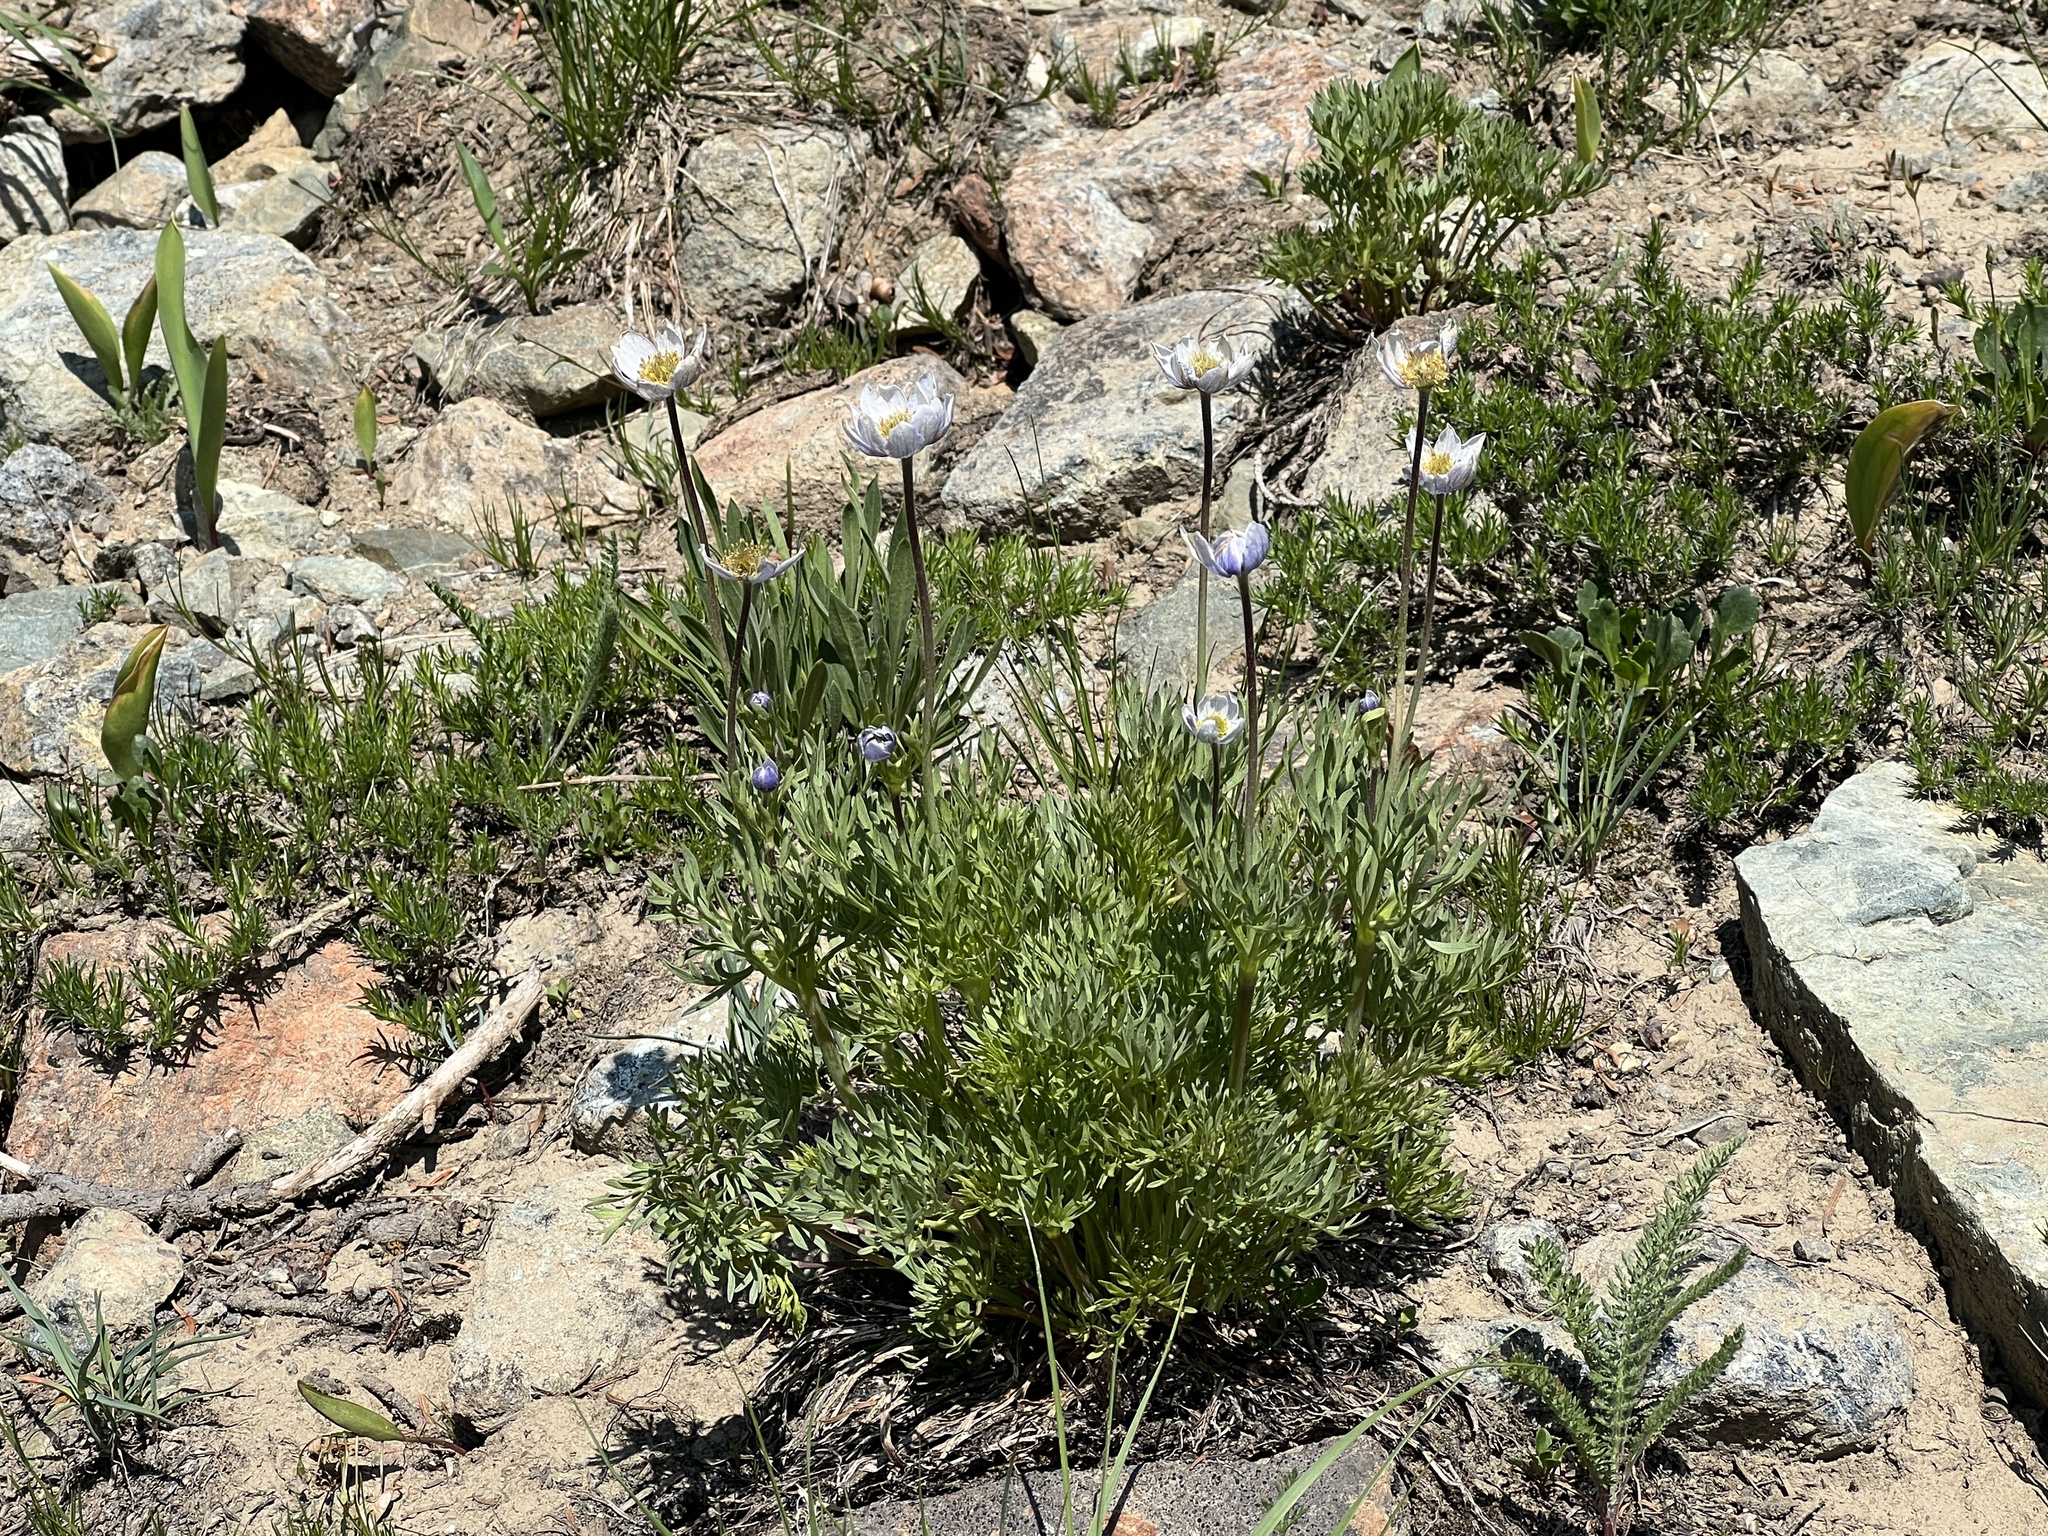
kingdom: Plantae
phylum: Tracheophyta
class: Magnoliopsida
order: Ranunculales
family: Ranunculaceae
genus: Anemone
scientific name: Anemone drummondii
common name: Drummond's anemone
